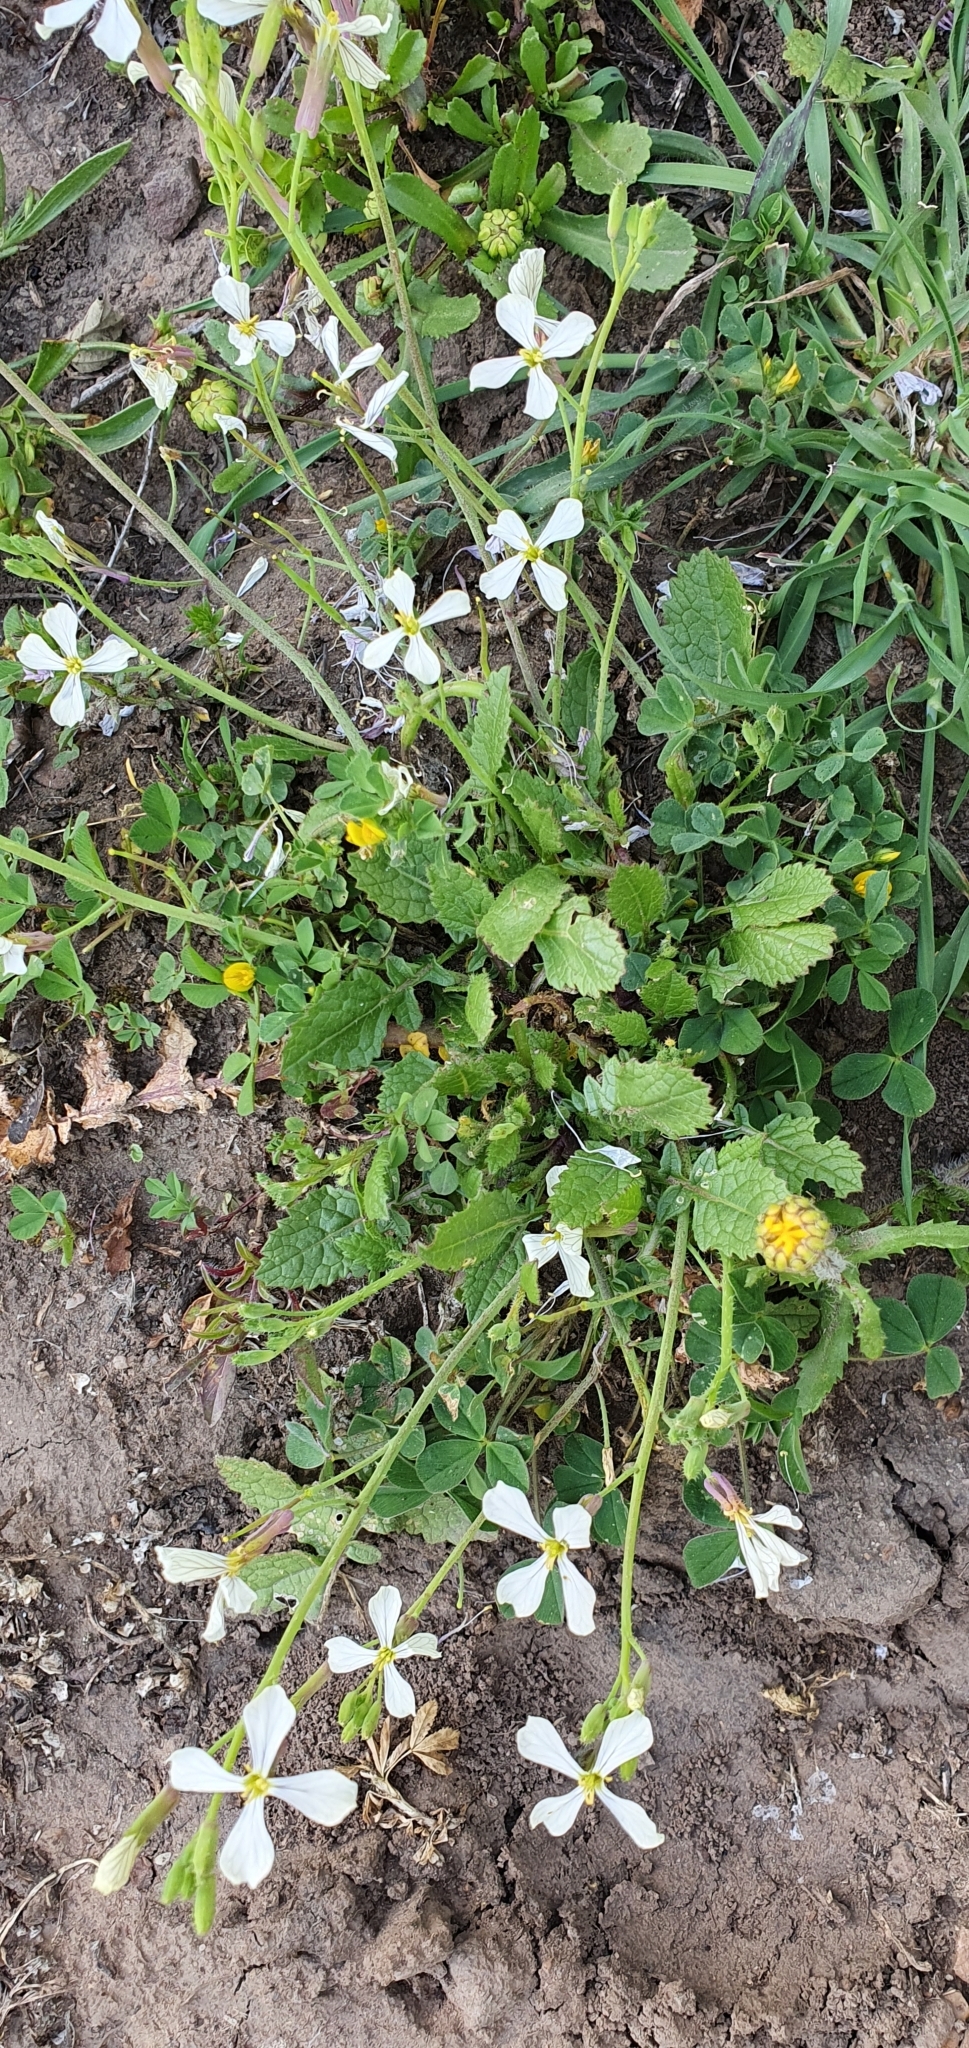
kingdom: Plantae
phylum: Tracheophyta
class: Magnoliopsida
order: Brassicales
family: Brassicaceae
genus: Raphanus
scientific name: Raphanus raphanistrum
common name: Wild radish
